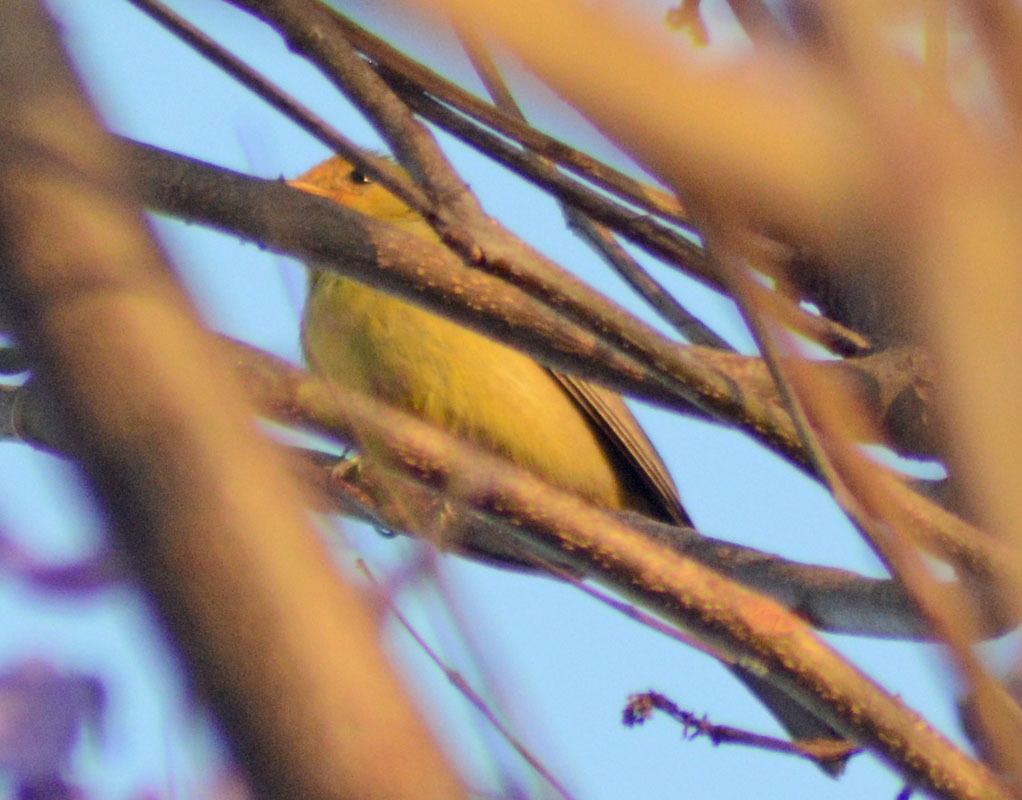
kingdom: Animalia
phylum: Chordata
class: Aves
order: Passeriformes
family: Cardinalidae
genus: Piranga
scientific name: Piranga ludoviciana
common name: Western tanager
